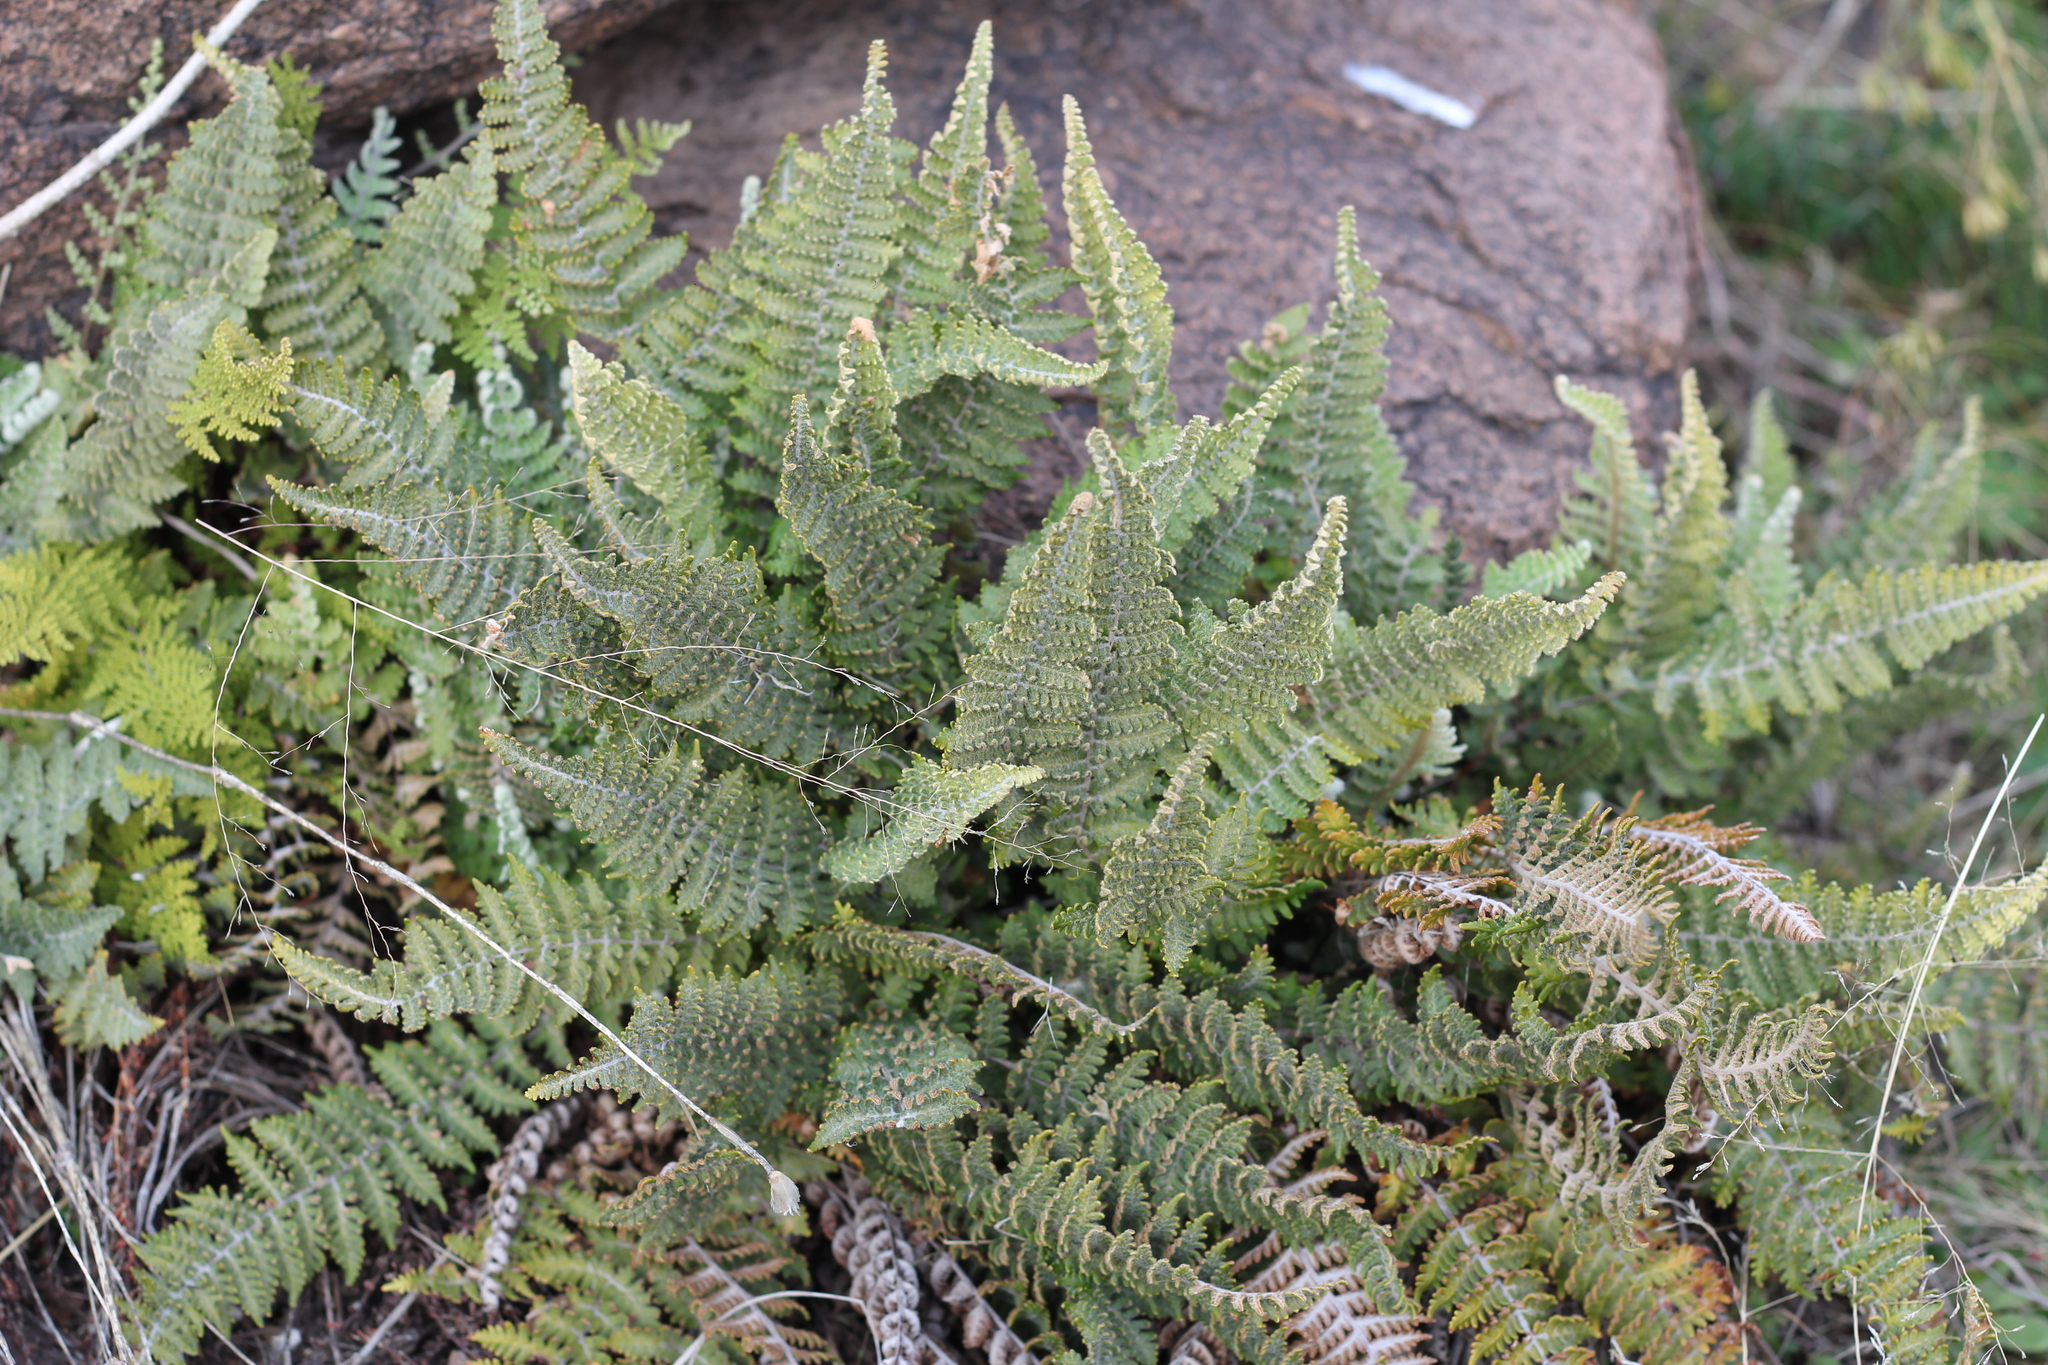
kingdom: Plantae
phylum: Tracheophyta
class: Polypodiopsida
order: Polypodiales
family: Pteridaceae
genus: Cheilanthes
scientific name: Cheilanthes buchtienii
